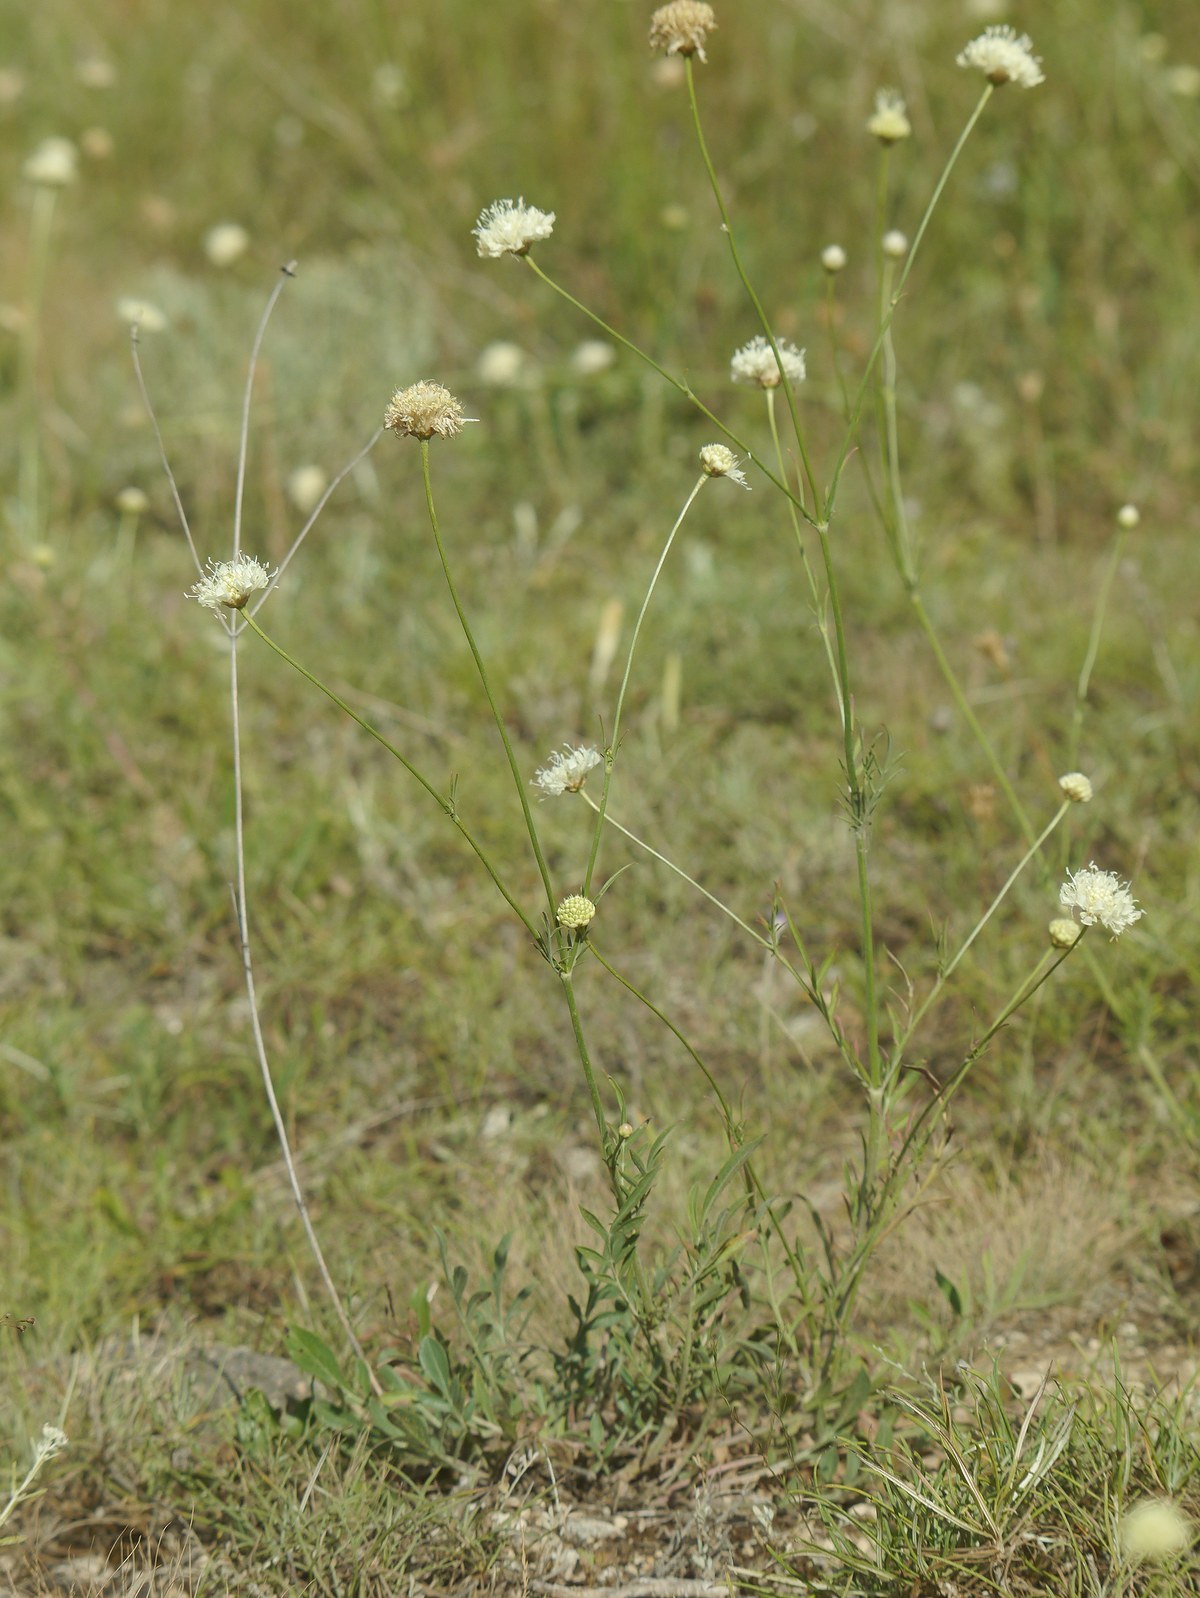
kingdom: Plantae
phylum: Tracheophyta
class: Magnoliopsida
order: Dipsacales
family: Caprifoliaceae
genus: Cephalaria
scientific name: Cephalaria uralensis
